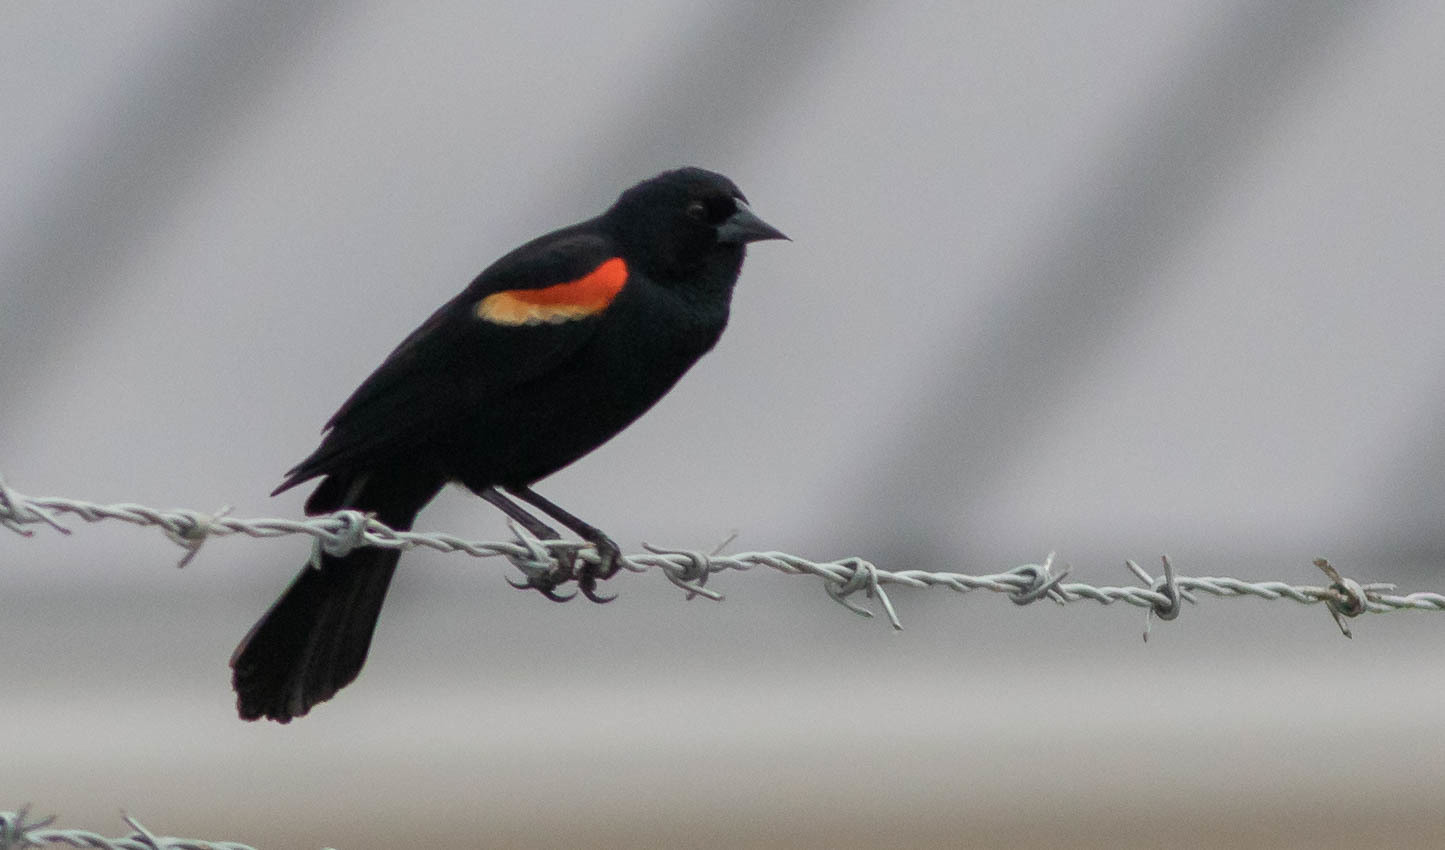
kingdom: Animalia
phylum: Chordata
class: Aves
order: Passeriformes
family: Icteridae
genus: Agelaius
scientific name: Agelaius phoeniceus
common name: Red-winged blackbird
